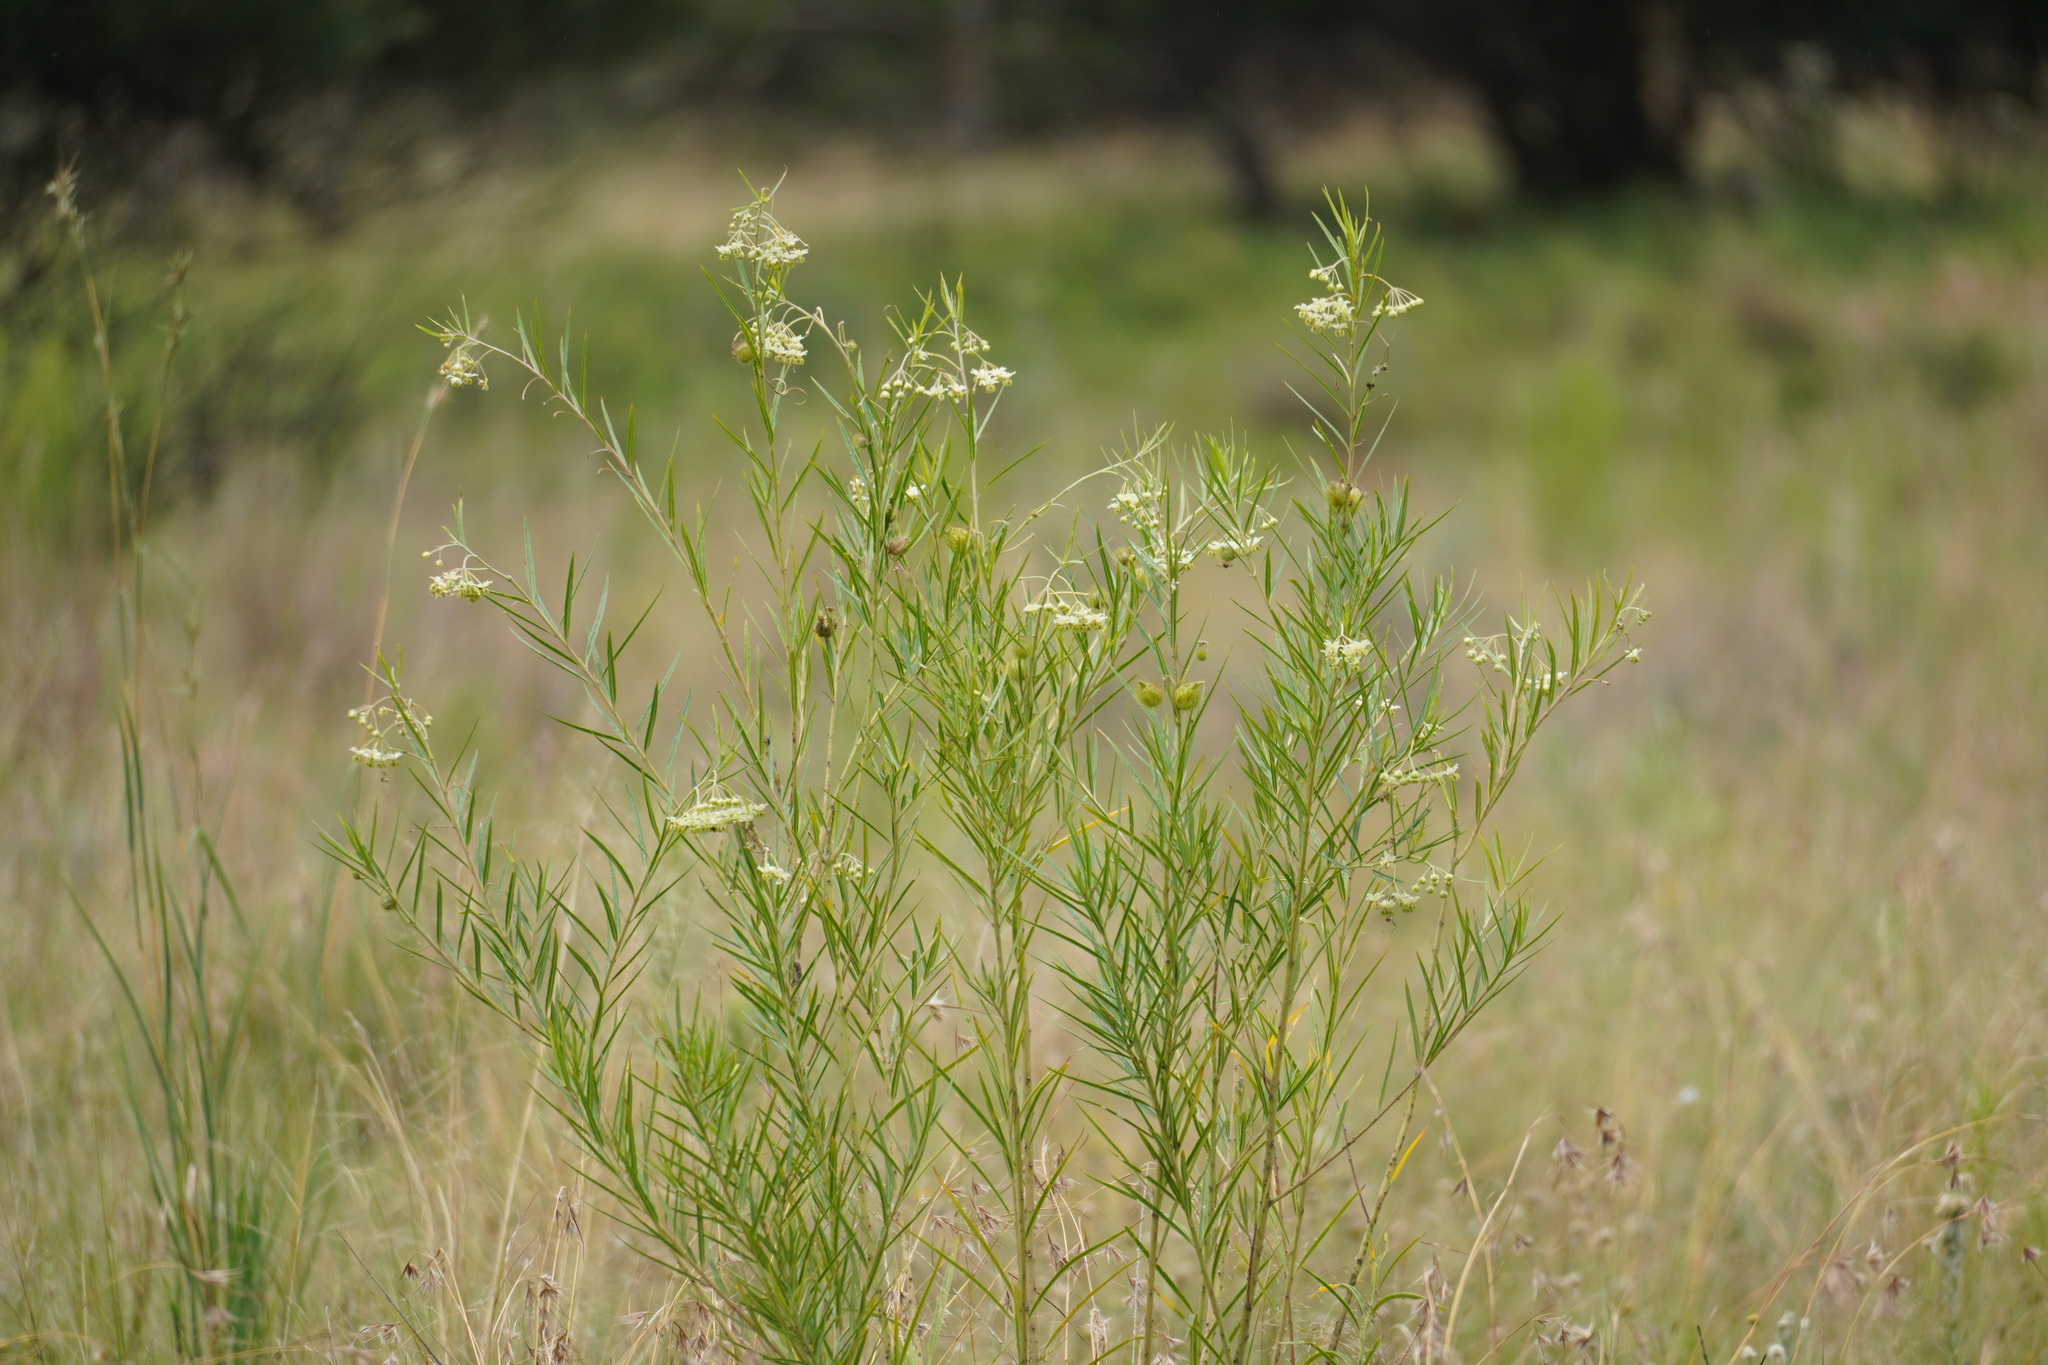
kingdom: Plantae
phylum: Tracheophyta
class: Magnoliopsida
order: Gentianales
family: Apocynaceae
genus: Gomphocarpus
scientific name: Gomphocarpus fruticosus
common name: Milkweed
